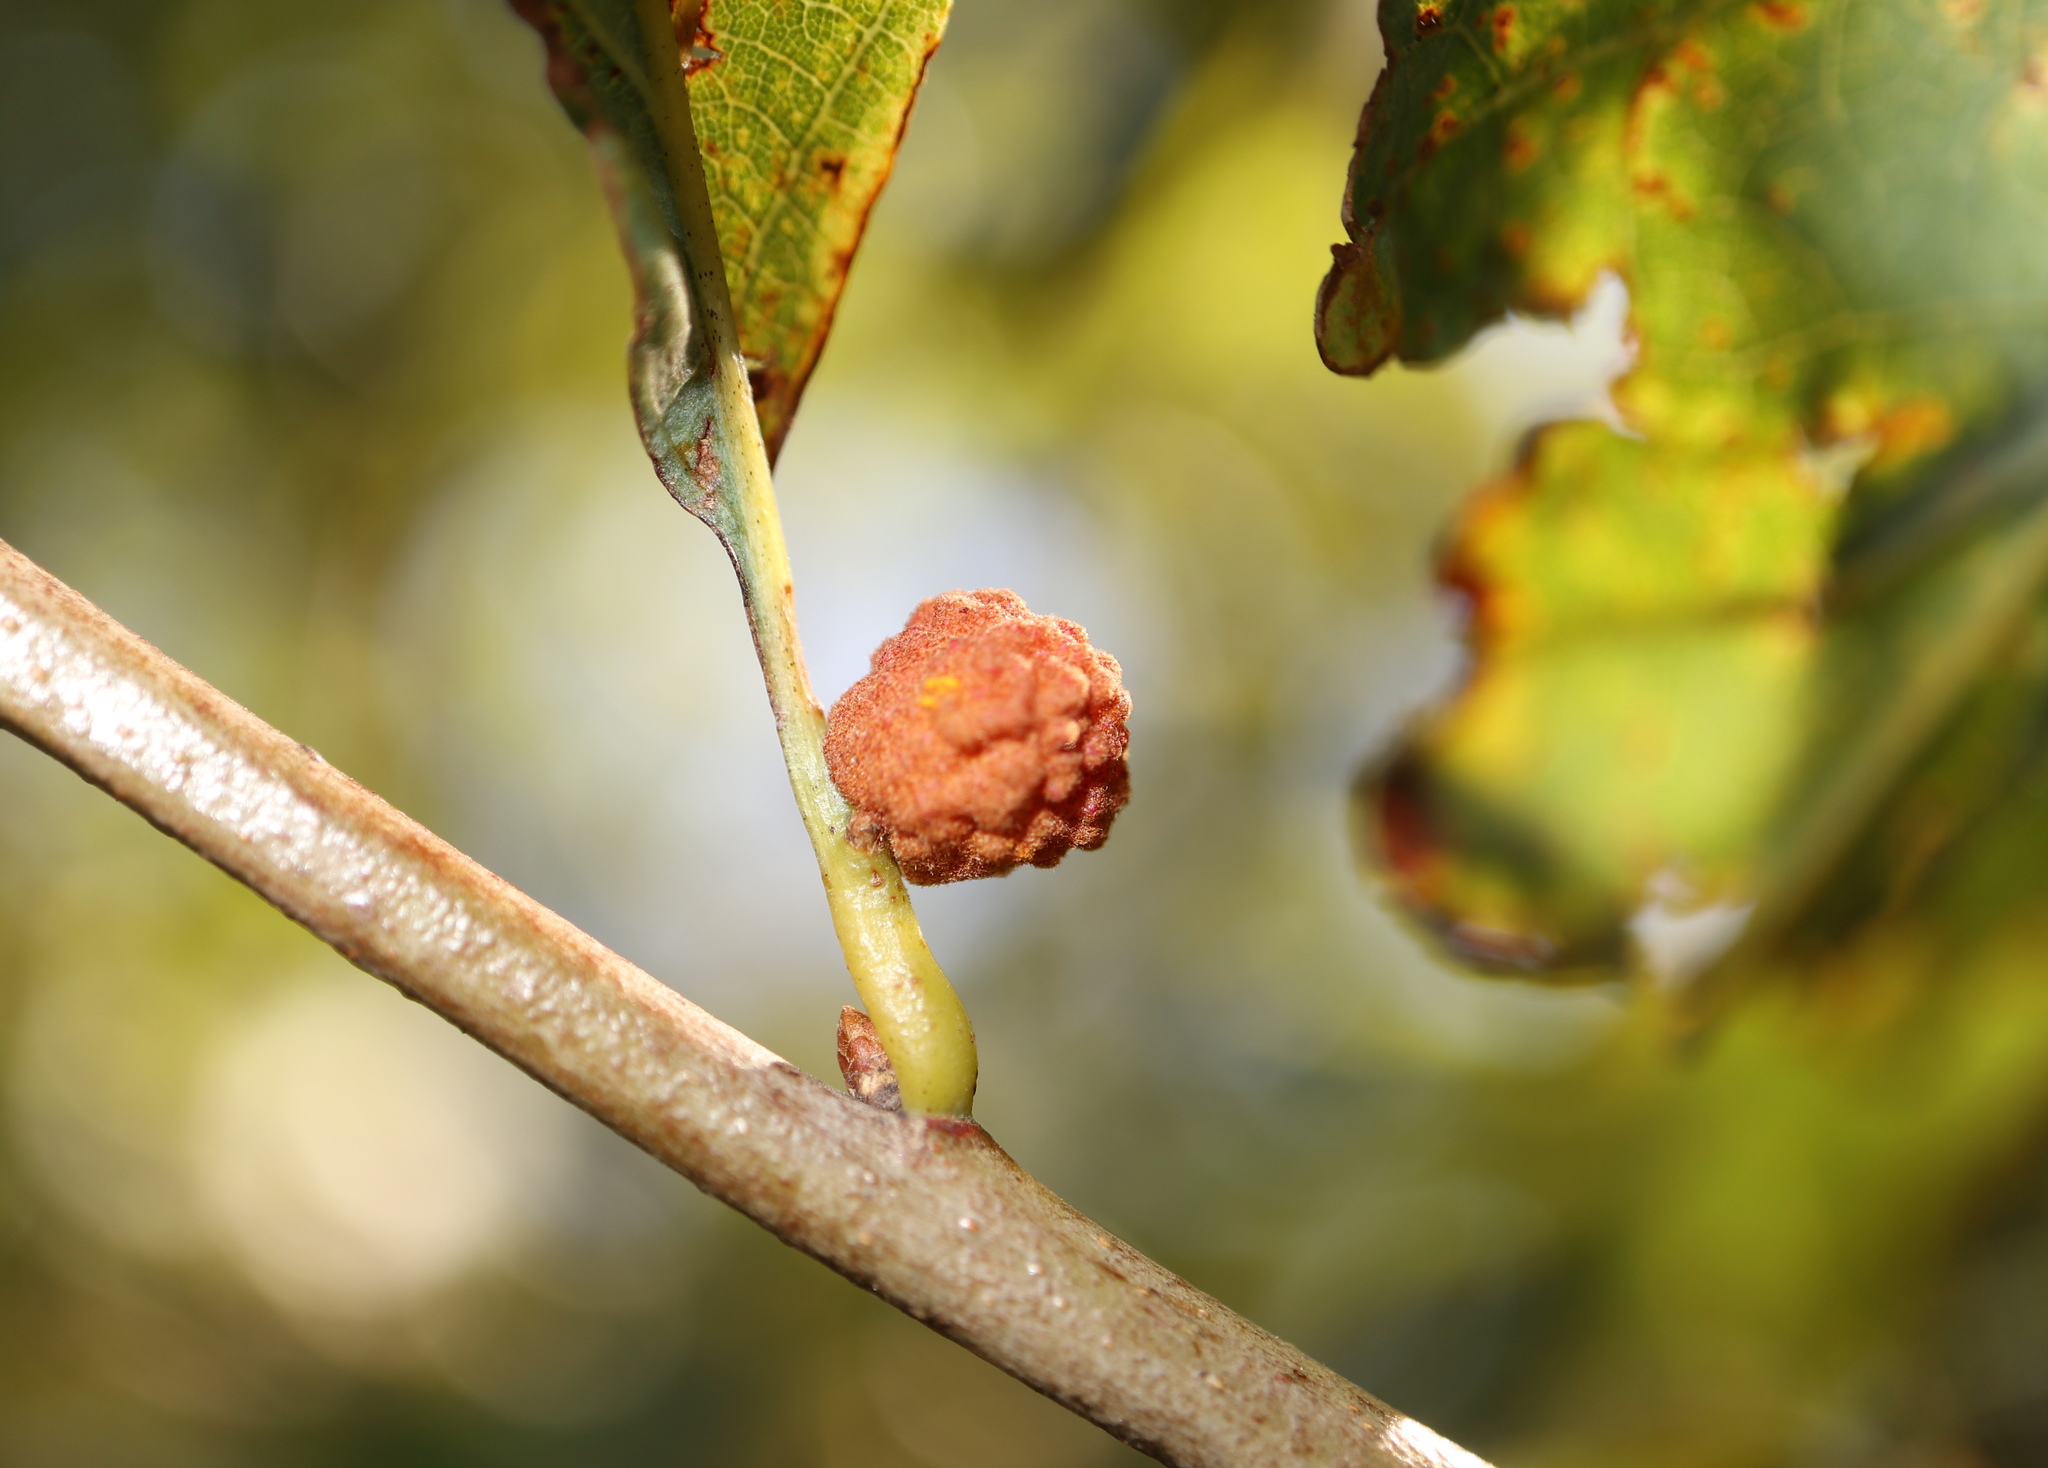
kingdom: Animalia
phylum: Arthropoda
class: Insecta
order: Hymenoptera
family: Cynipidae
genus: Andricus
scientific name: Andricus
